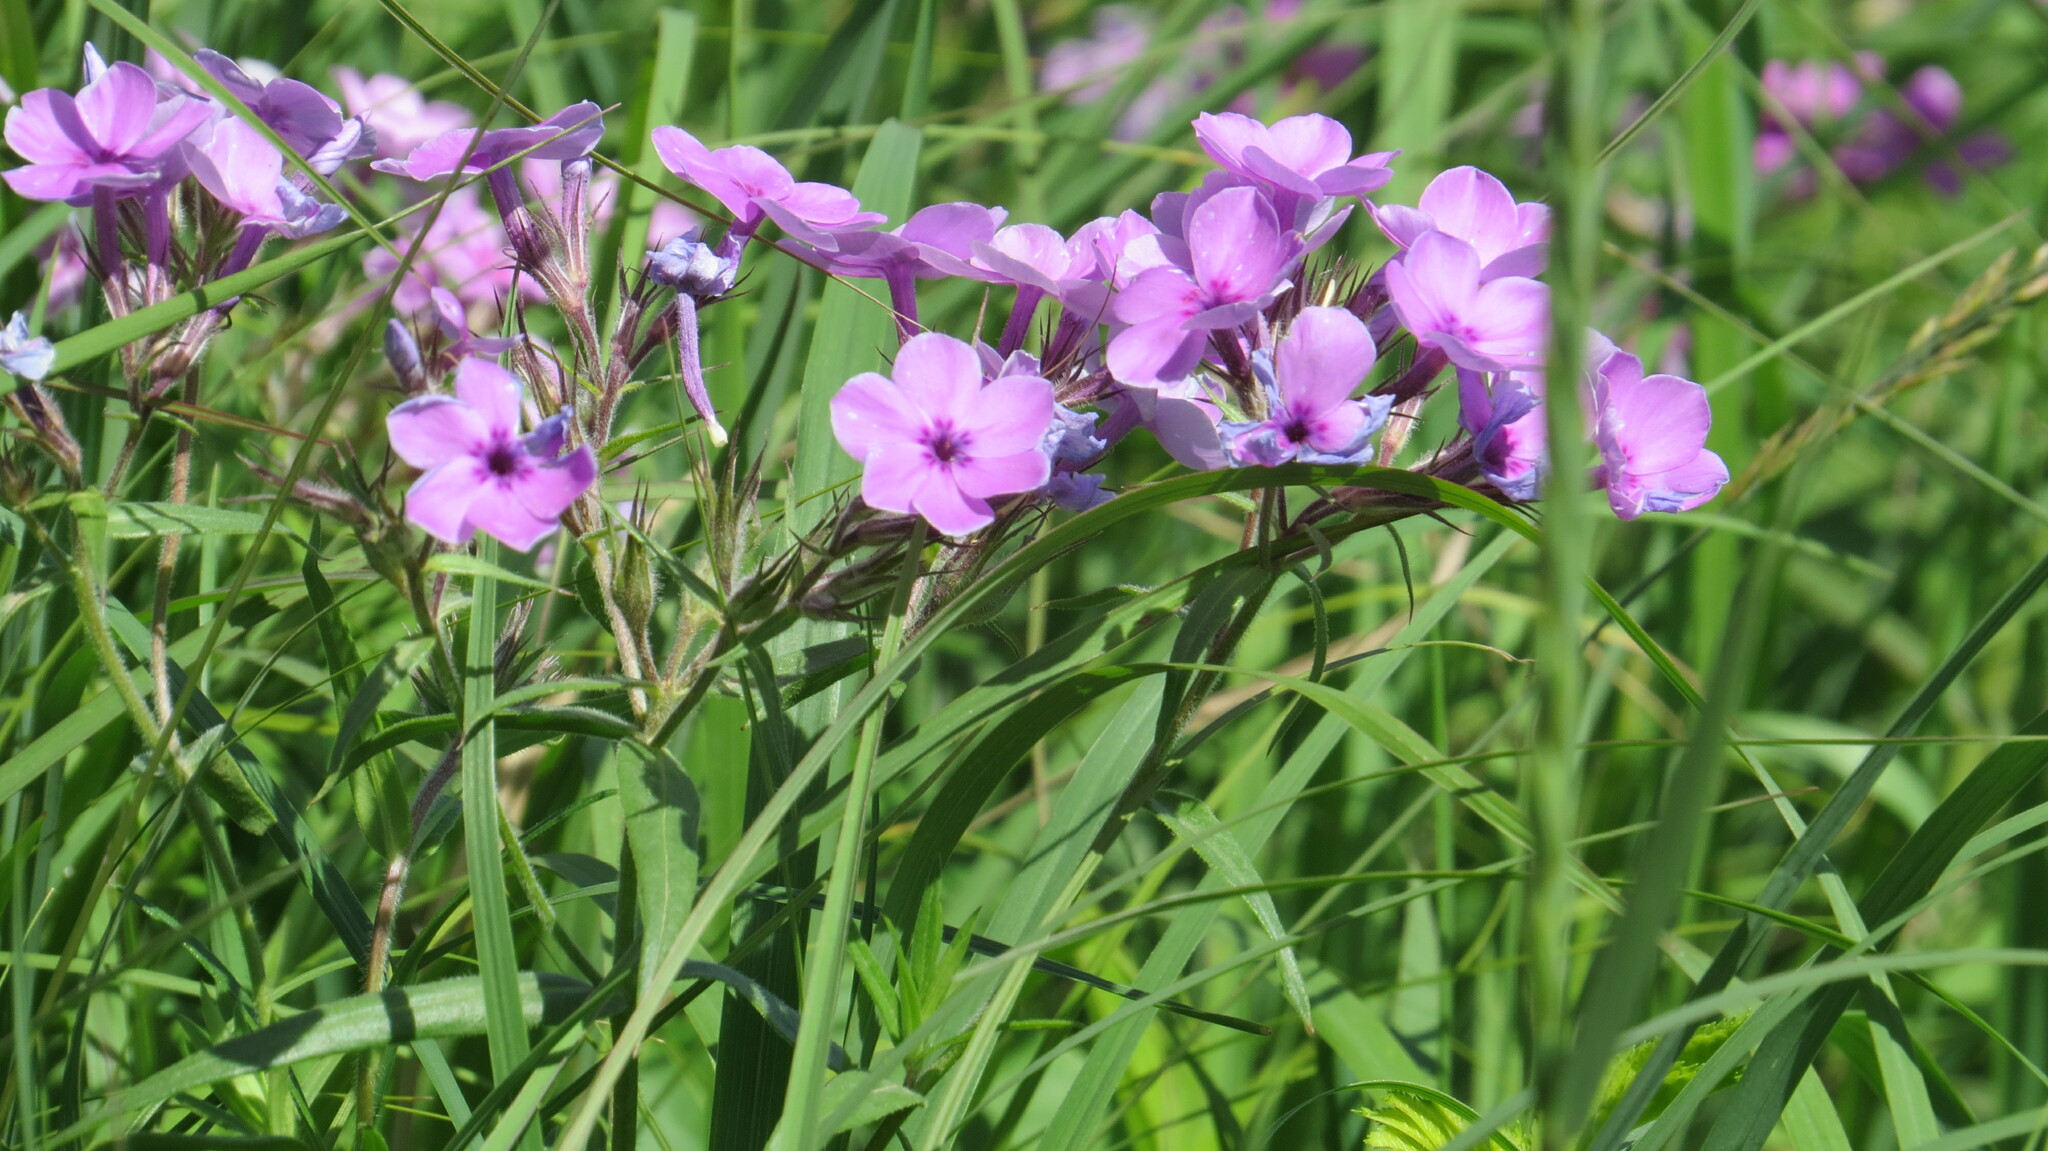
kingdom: Plantae
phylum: Tracheophyta
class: Magnoliopsida
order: Ericales
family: Polemoniaceae
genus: Phlox
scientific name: Phlox pilosa
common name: Prairie phlox
